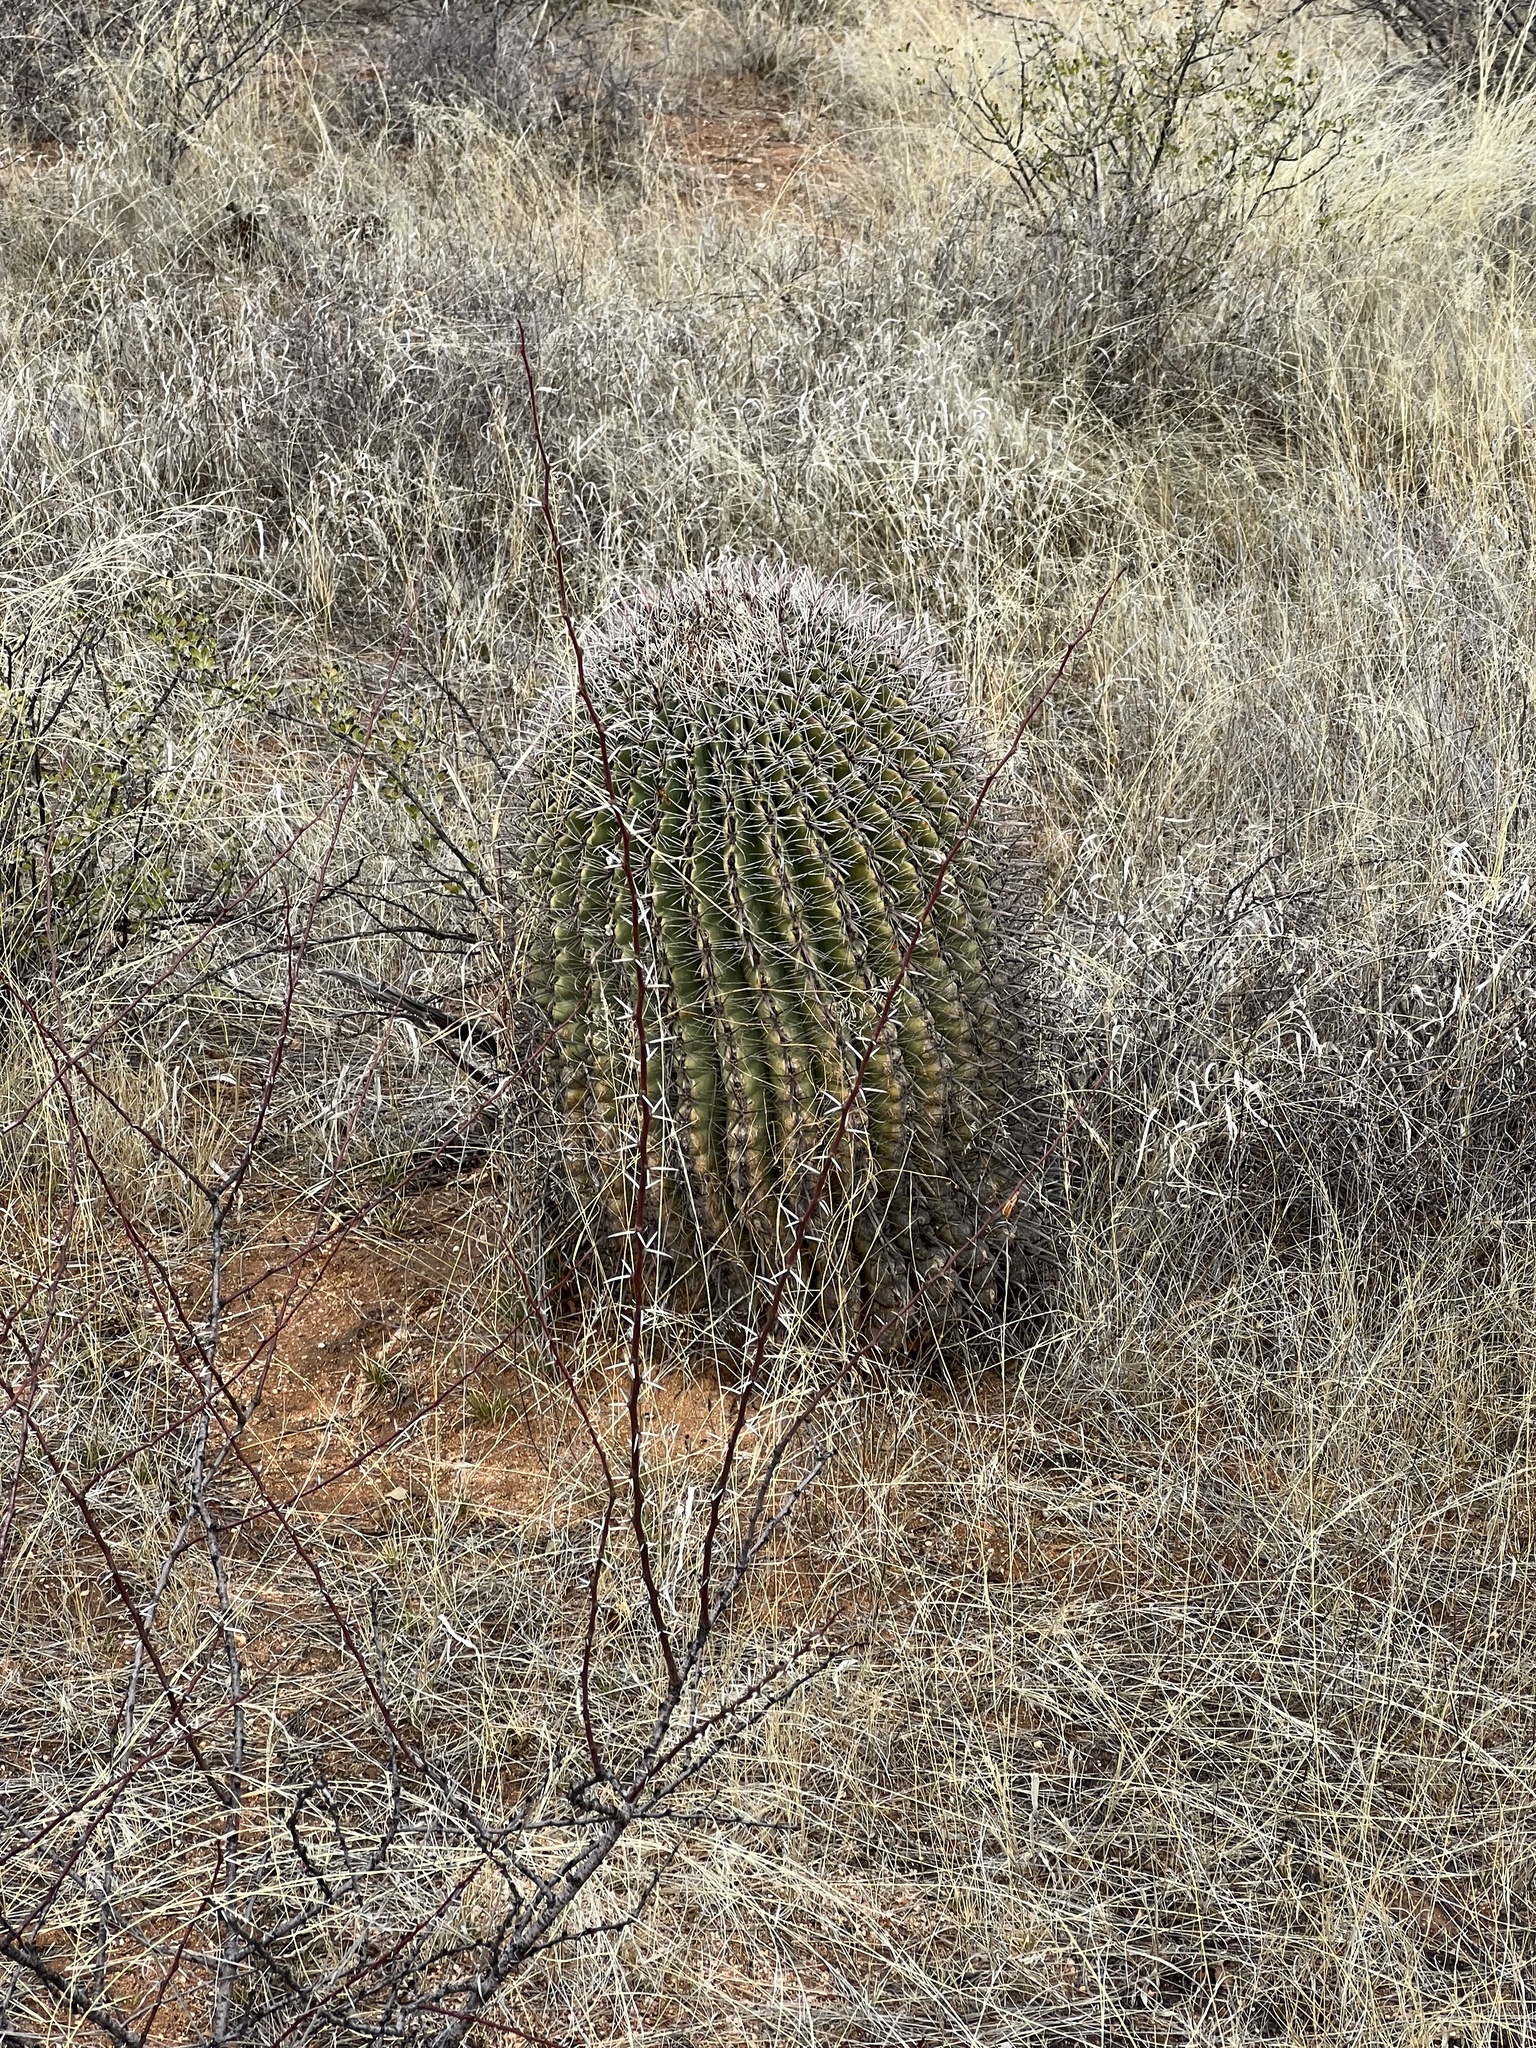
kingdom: Plantae
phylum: Tracheophyta
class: Magnoliopsida
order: Caryophyllales
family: Cactaceae
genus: Ferocactus
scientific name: Ferocactus wislizeni
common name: Candy barrel cactus
